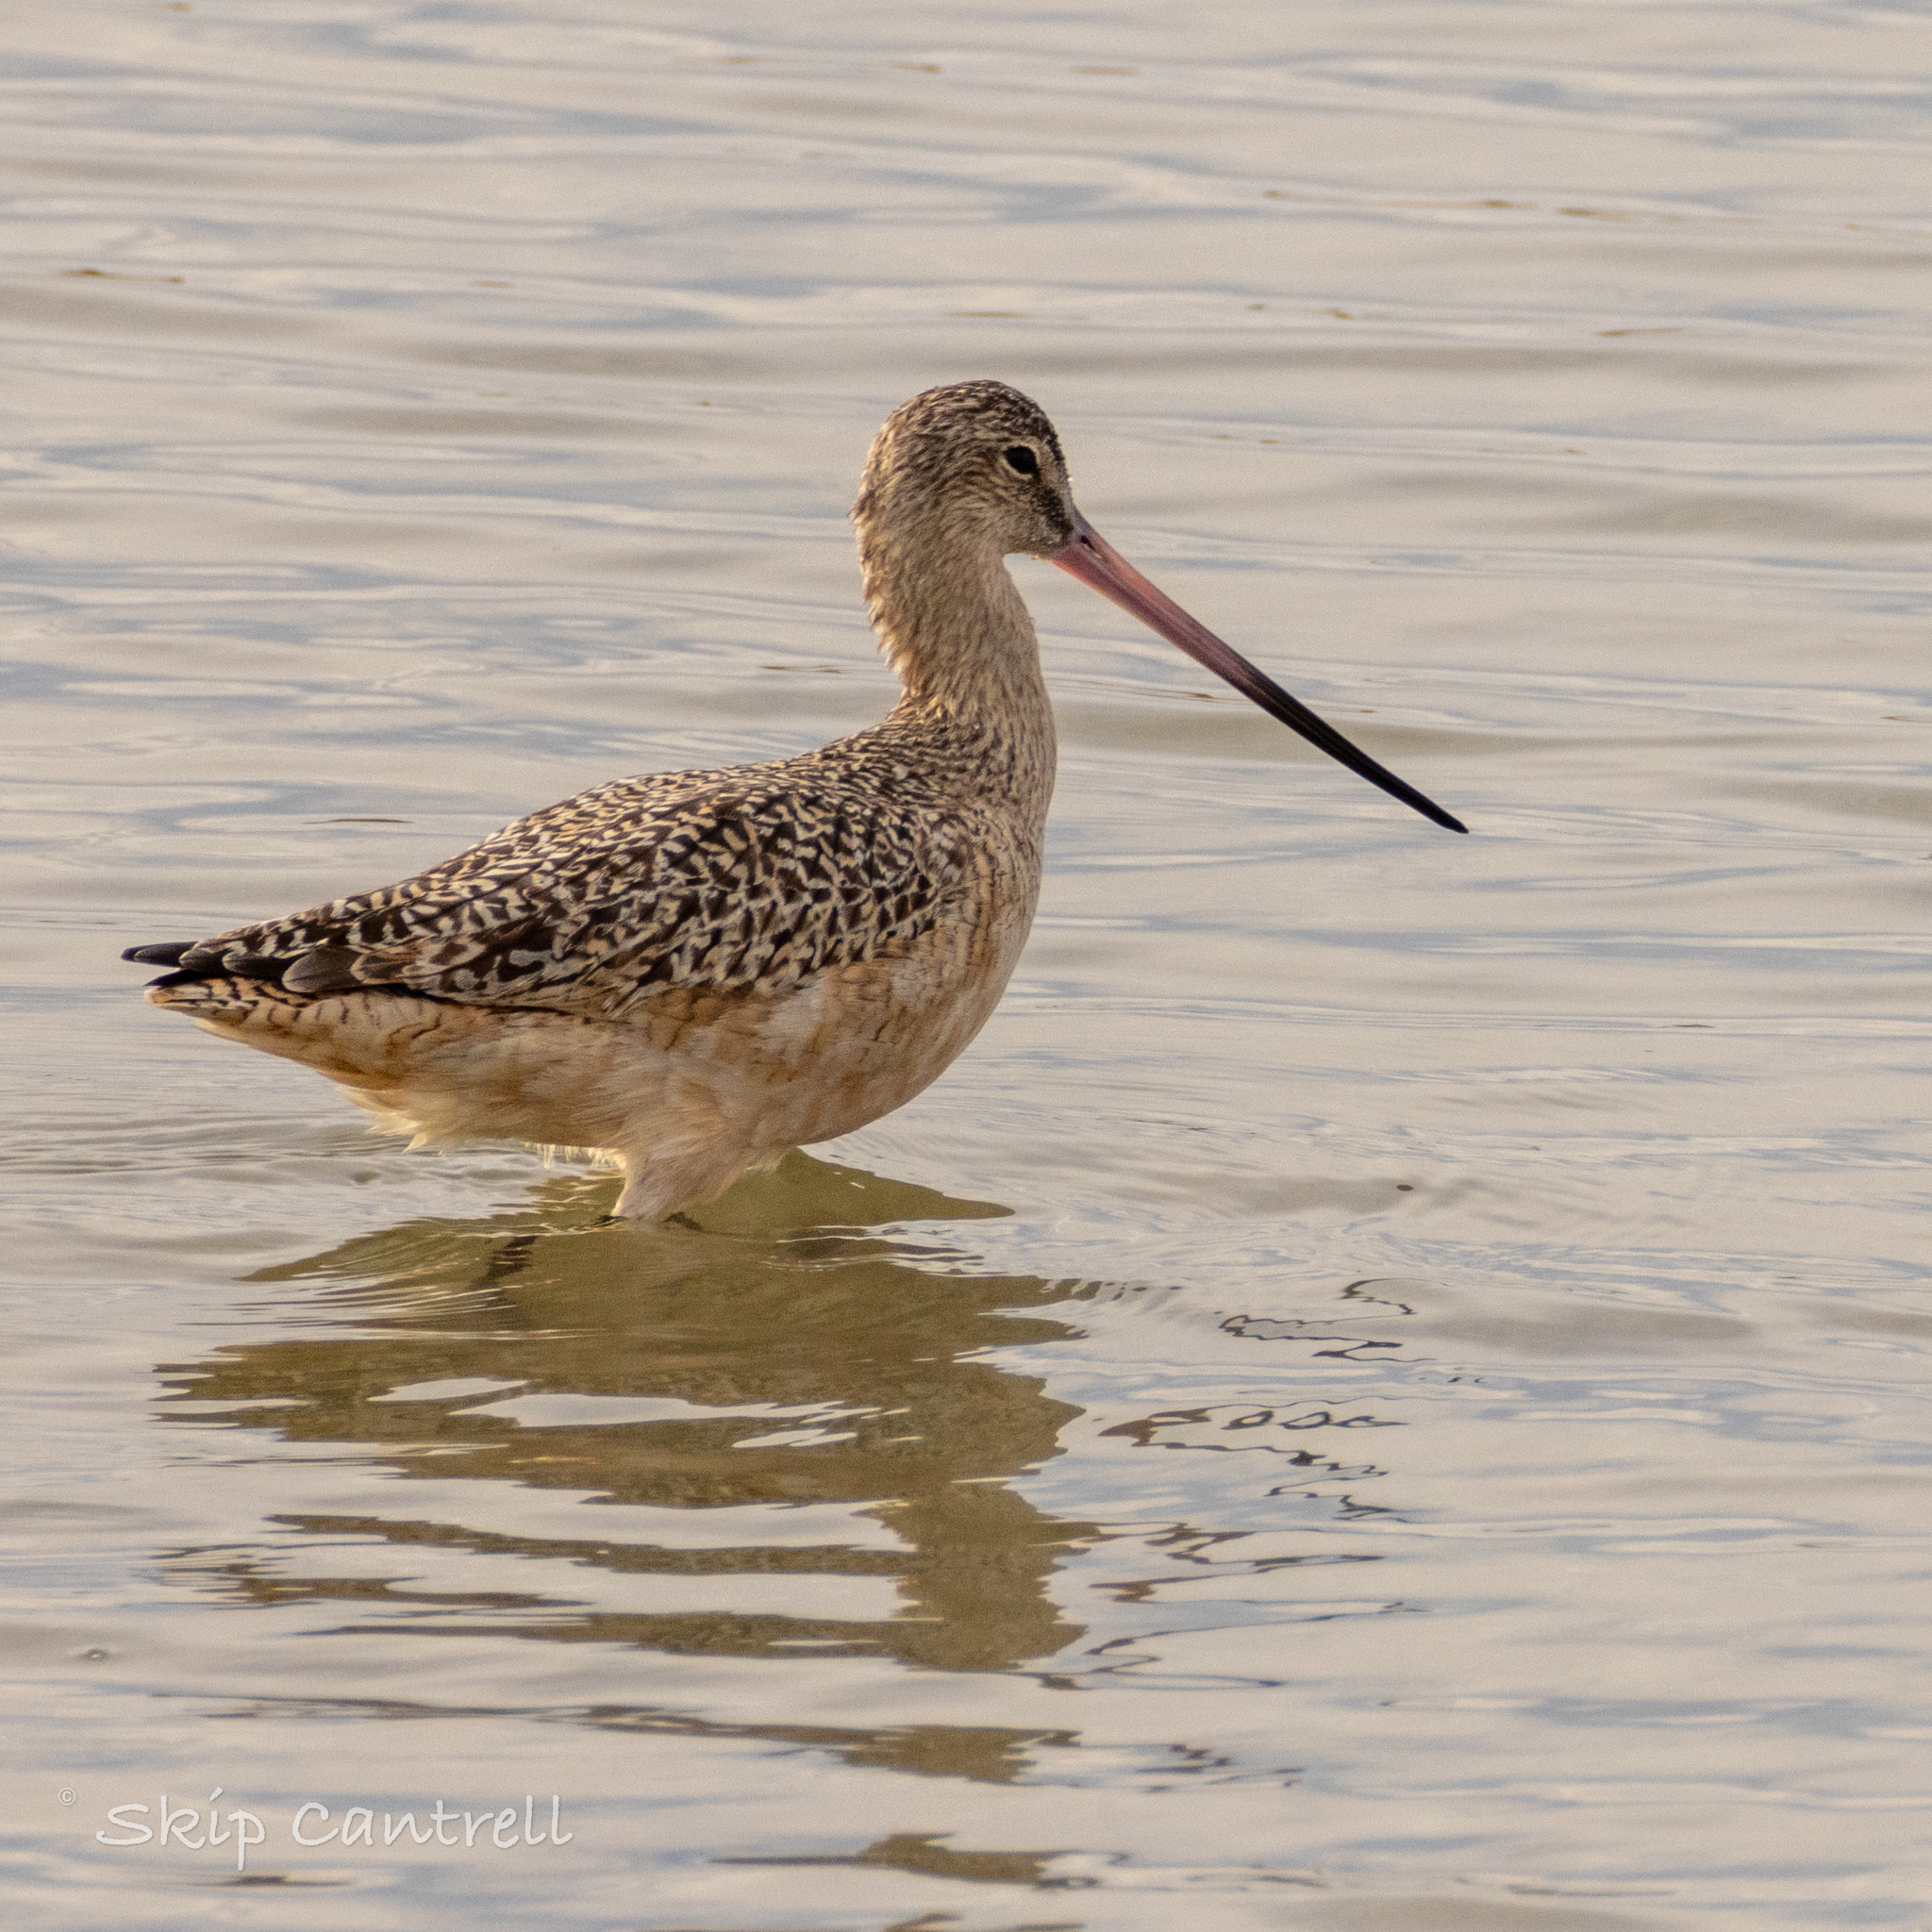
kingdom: Animalia
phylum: Chordata
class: Aves
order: Charadriiformes
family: Scolopacidae
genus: Limosa
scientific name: Limosa fedoa
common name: Marbled godwit
